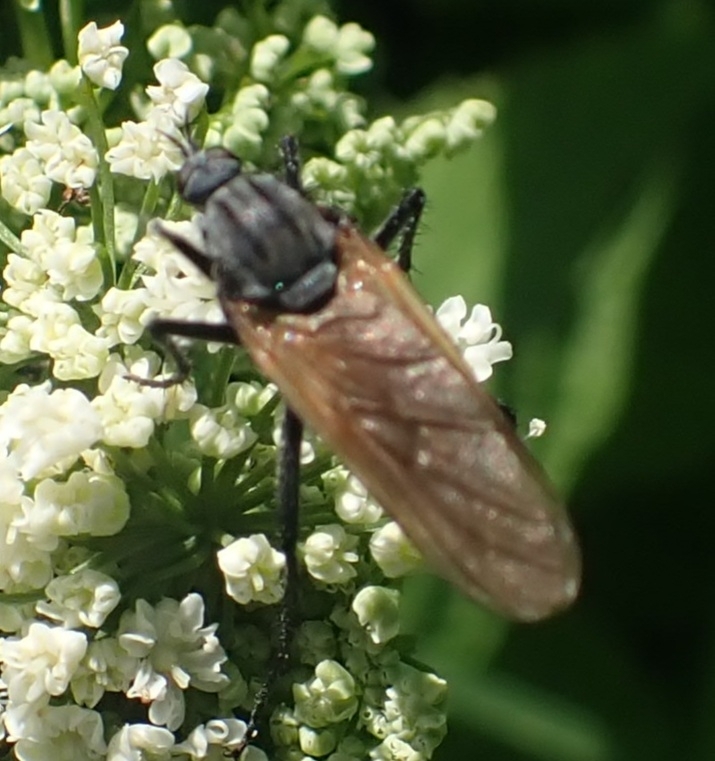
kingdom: Animalia
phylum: Arthropoda
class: Insecta
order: Diptera
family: Empididae
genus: Empis
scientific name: Empis tessellata
